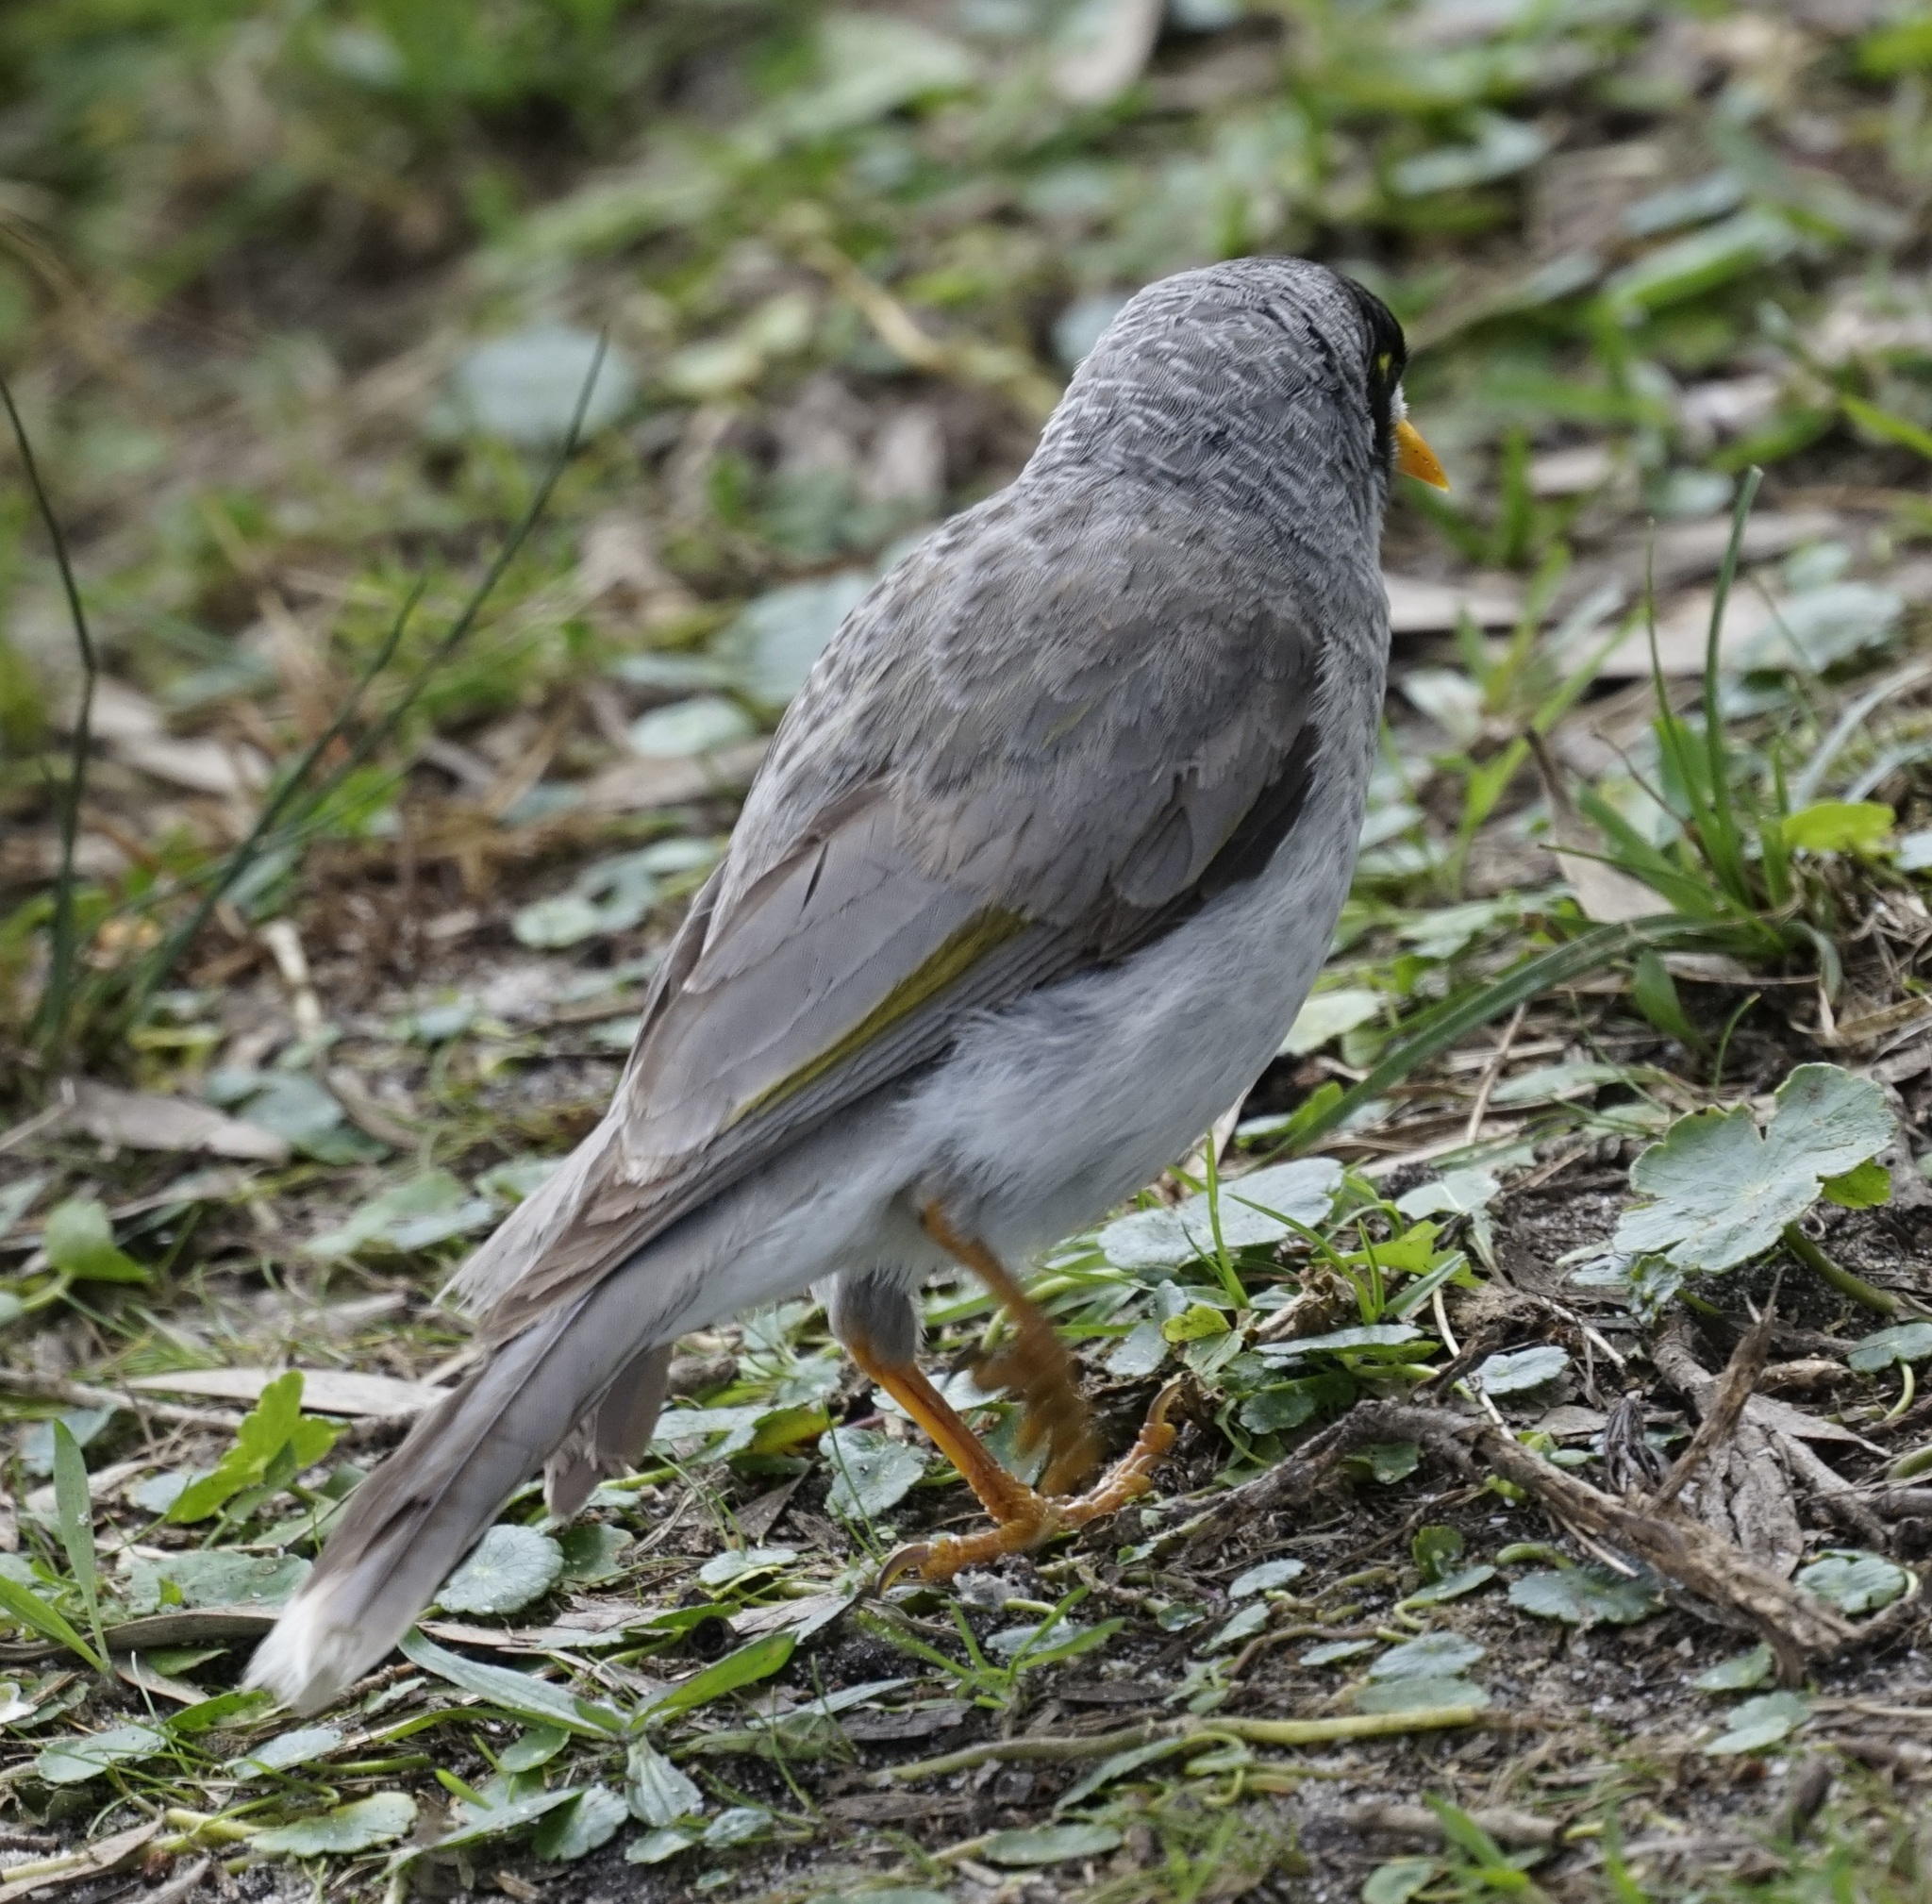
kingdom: Animalia
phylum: Chordata
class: Aves
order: Passeriformes
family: Meliphagidae
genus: Manorina
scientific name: Manorina melanocephala
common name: Noisy miner
